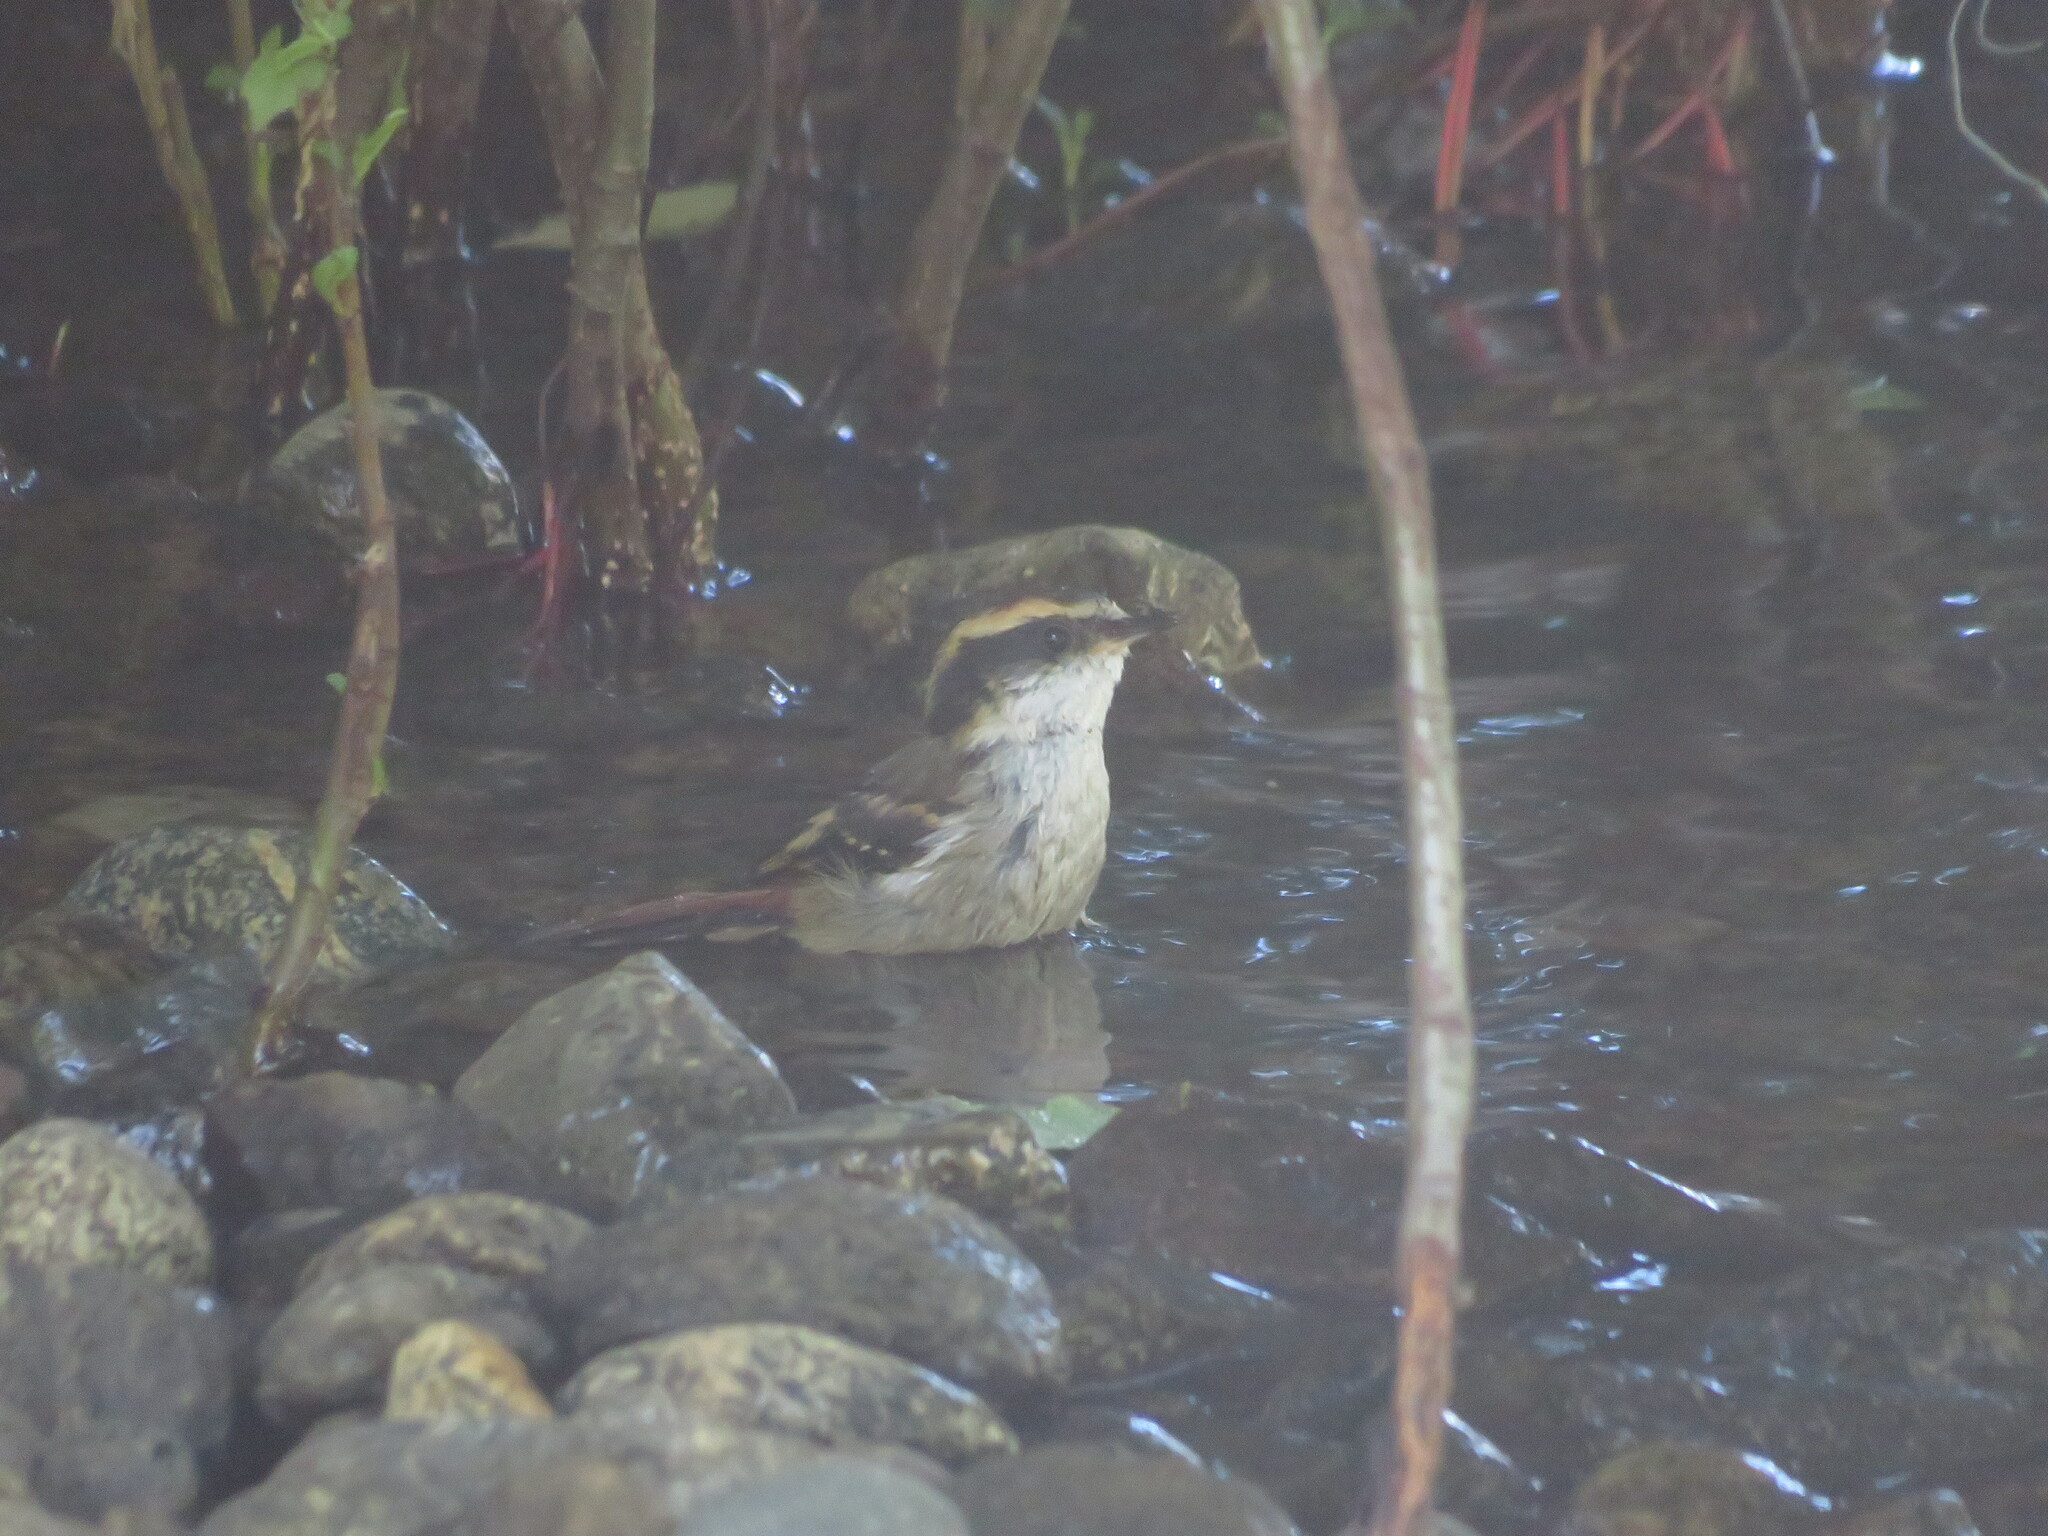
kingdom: Animalia
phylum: Chordata
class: Aves
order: Passeriformes
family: Furnariidae
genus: Aphrastura
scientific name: Aphrastura spinicauda
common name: Thorn-tailed rayadito
